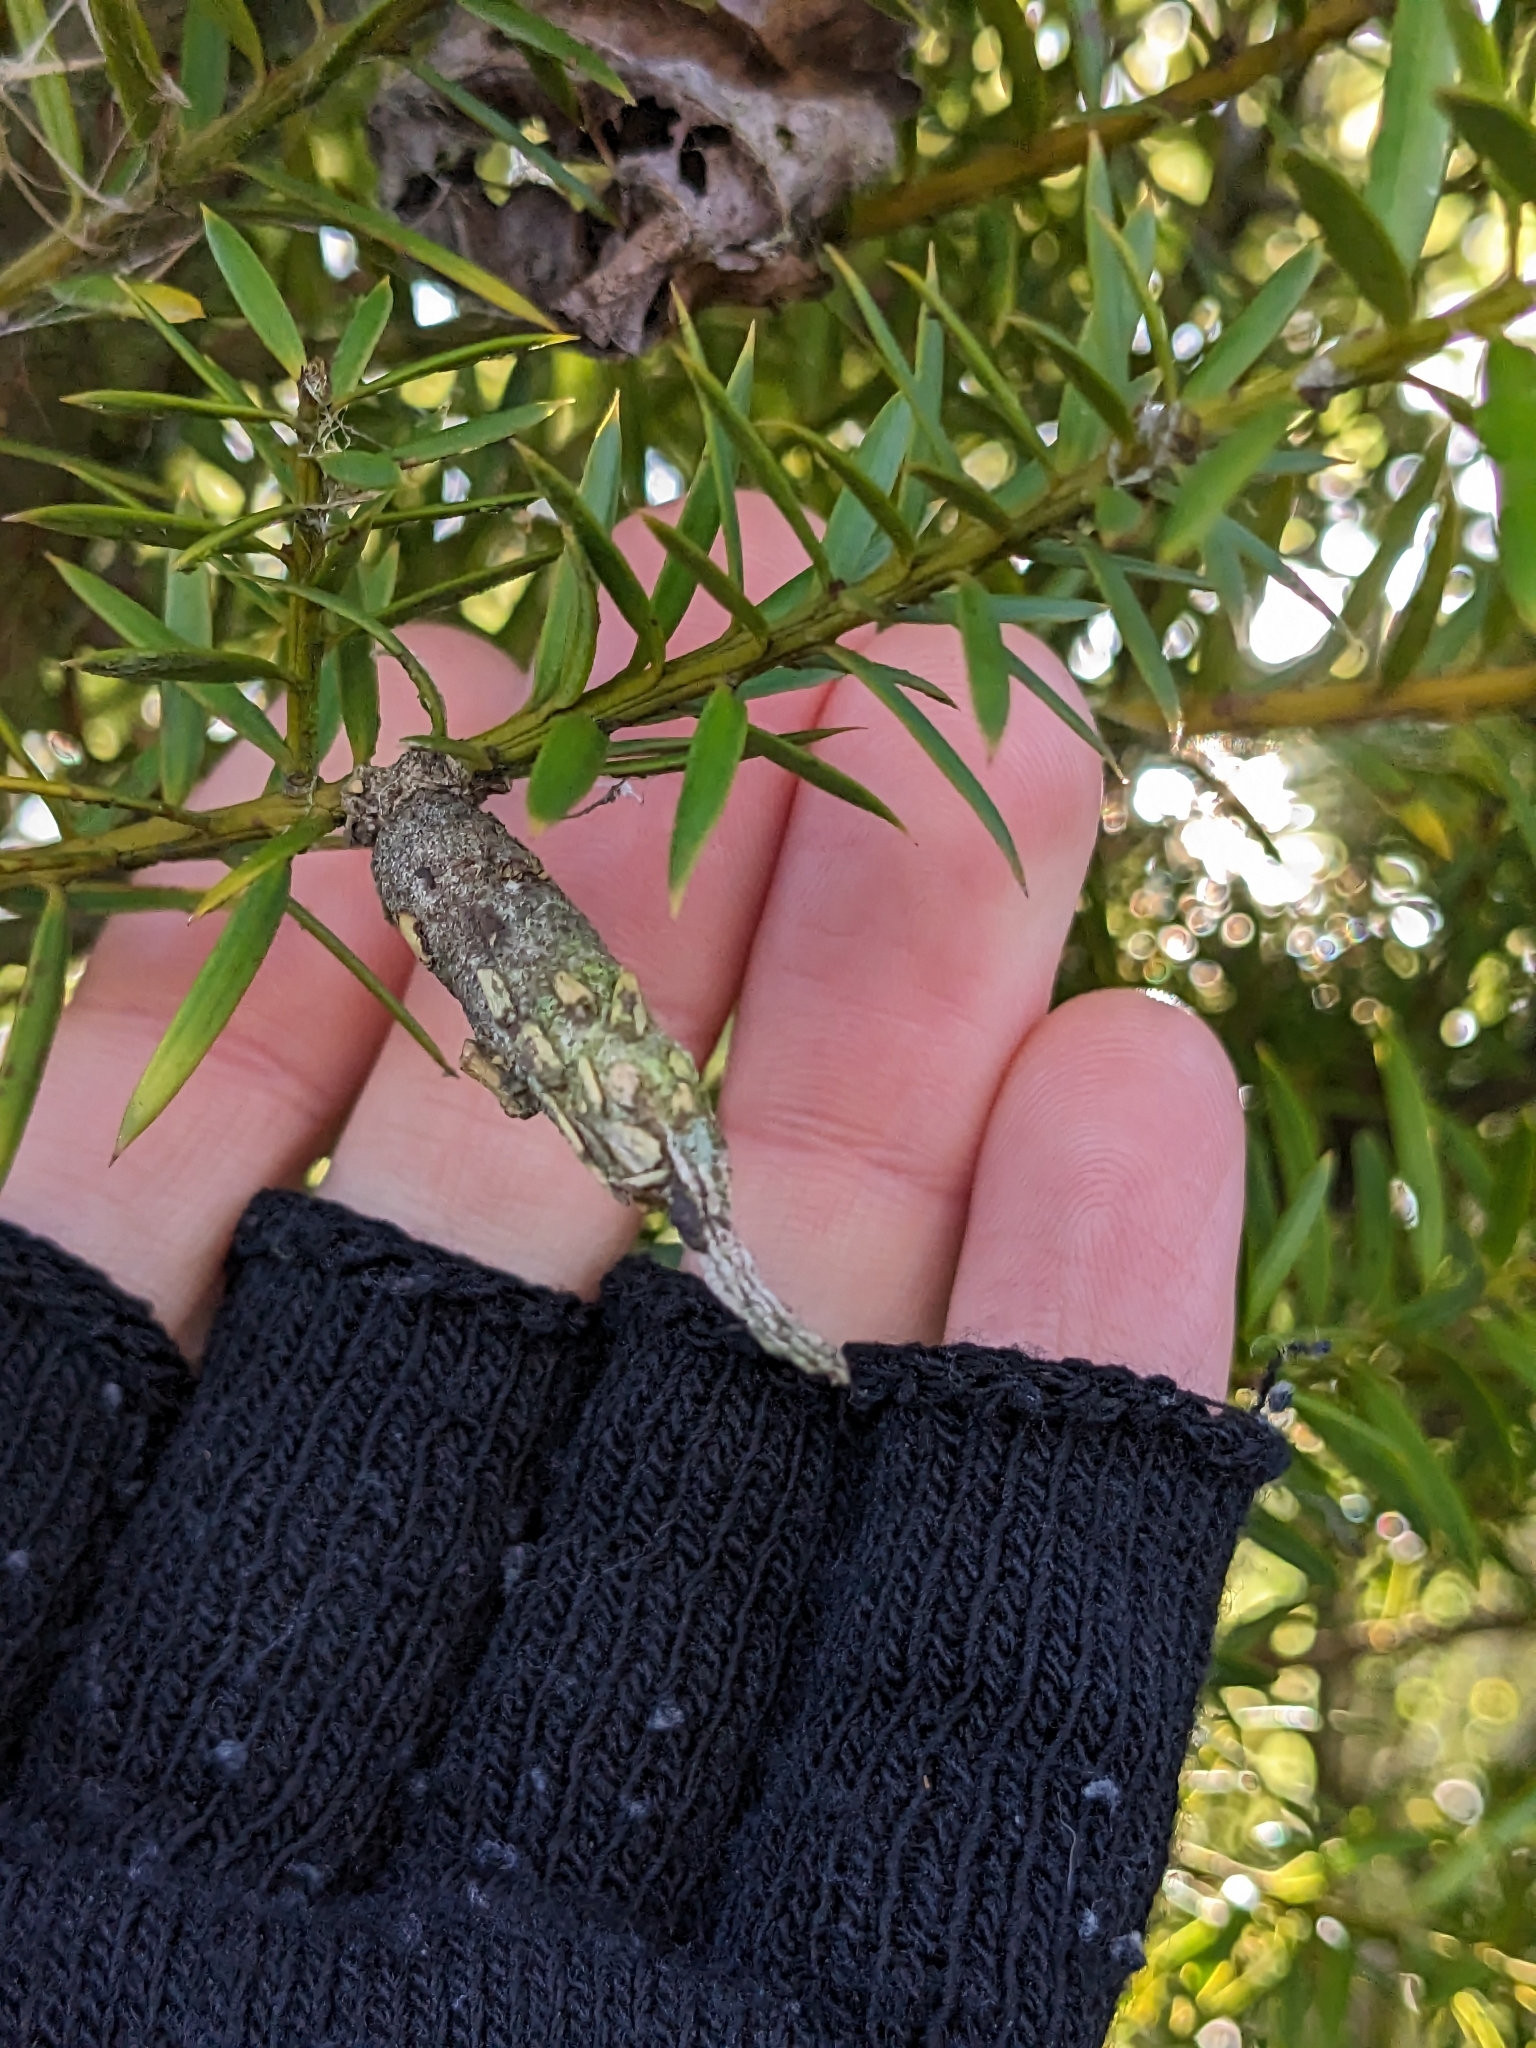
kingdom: Animalia
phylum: Arthropoda
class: Insecta
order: Lepidoptera
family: Psychidae
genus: Liothula
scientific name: Liothula omnivora
